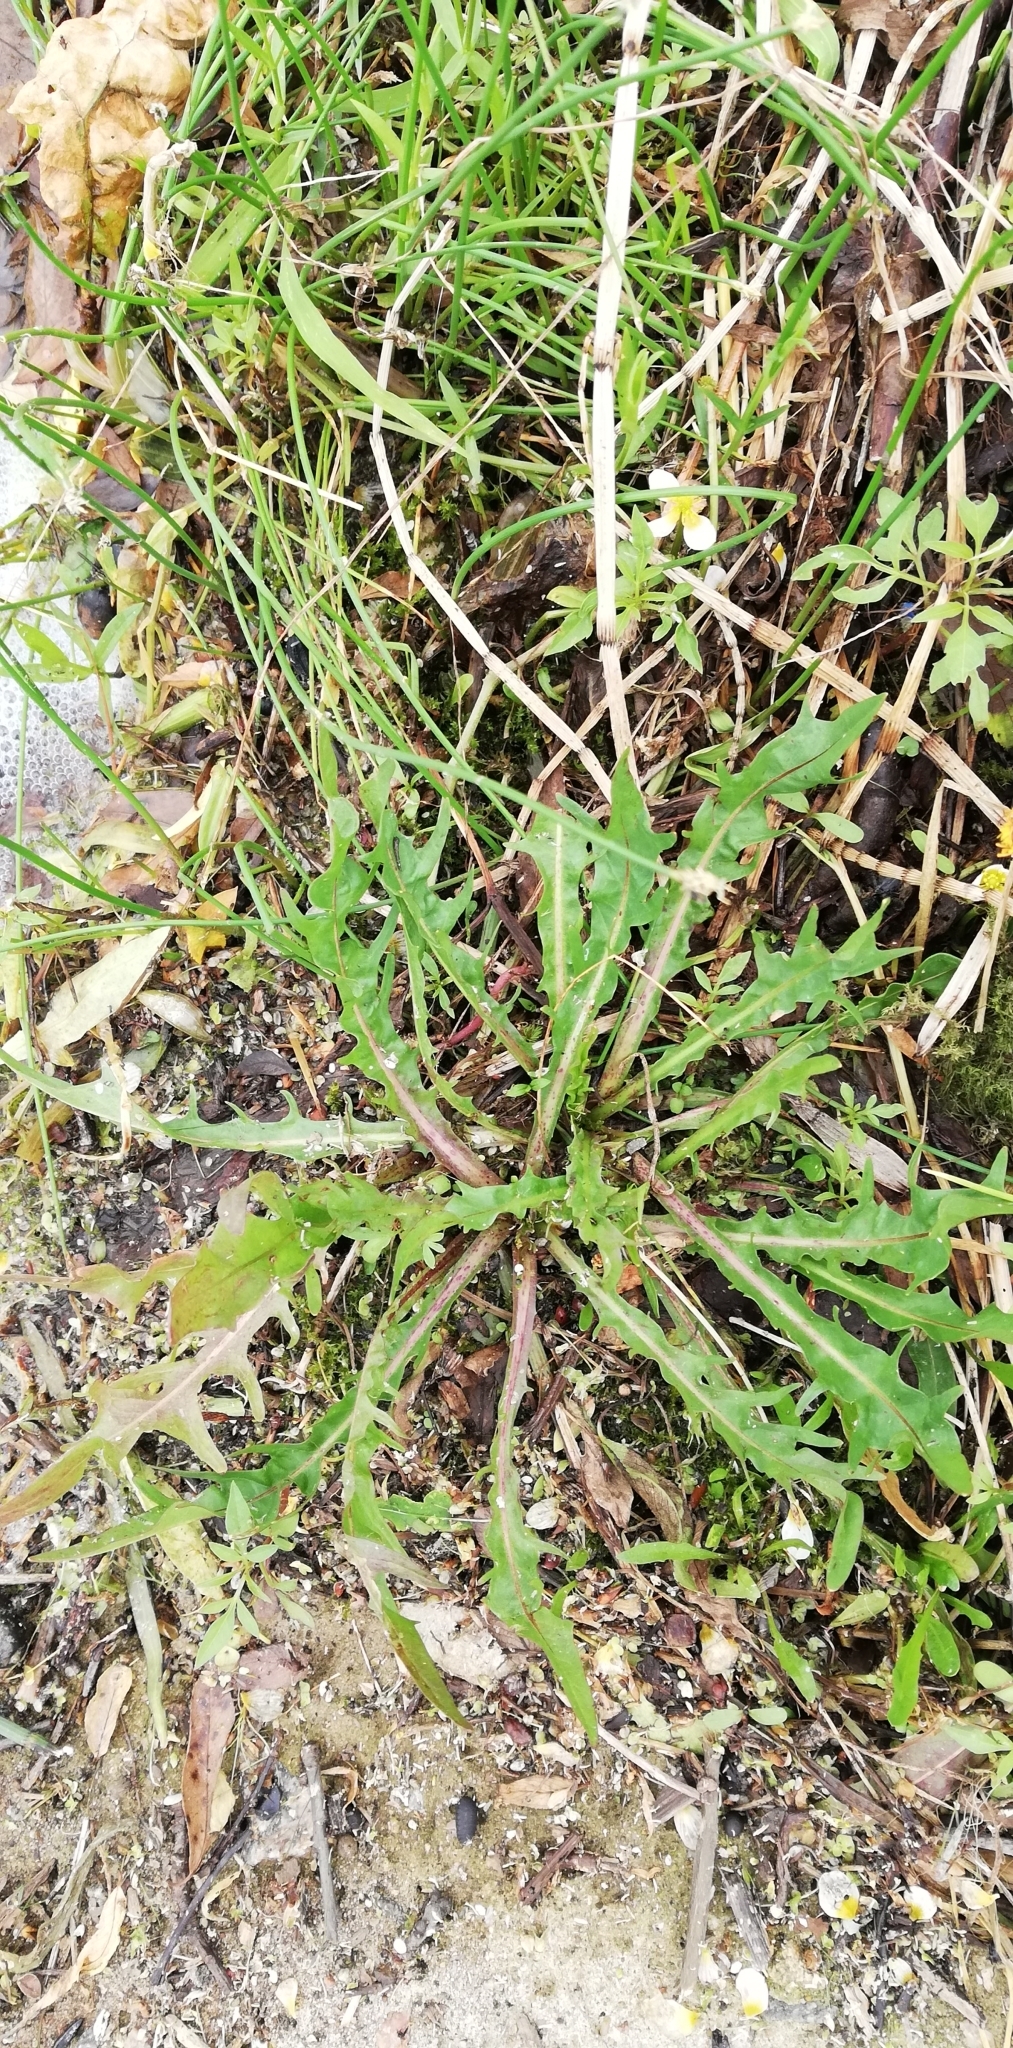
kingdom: Plantae
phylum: Tracheophyta
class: Magnoliopsida
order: Asterales
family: Asteraceae
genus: Scorzoneroides
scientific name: Scorzoneroides autumnalis
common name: Autumn hawkbit
